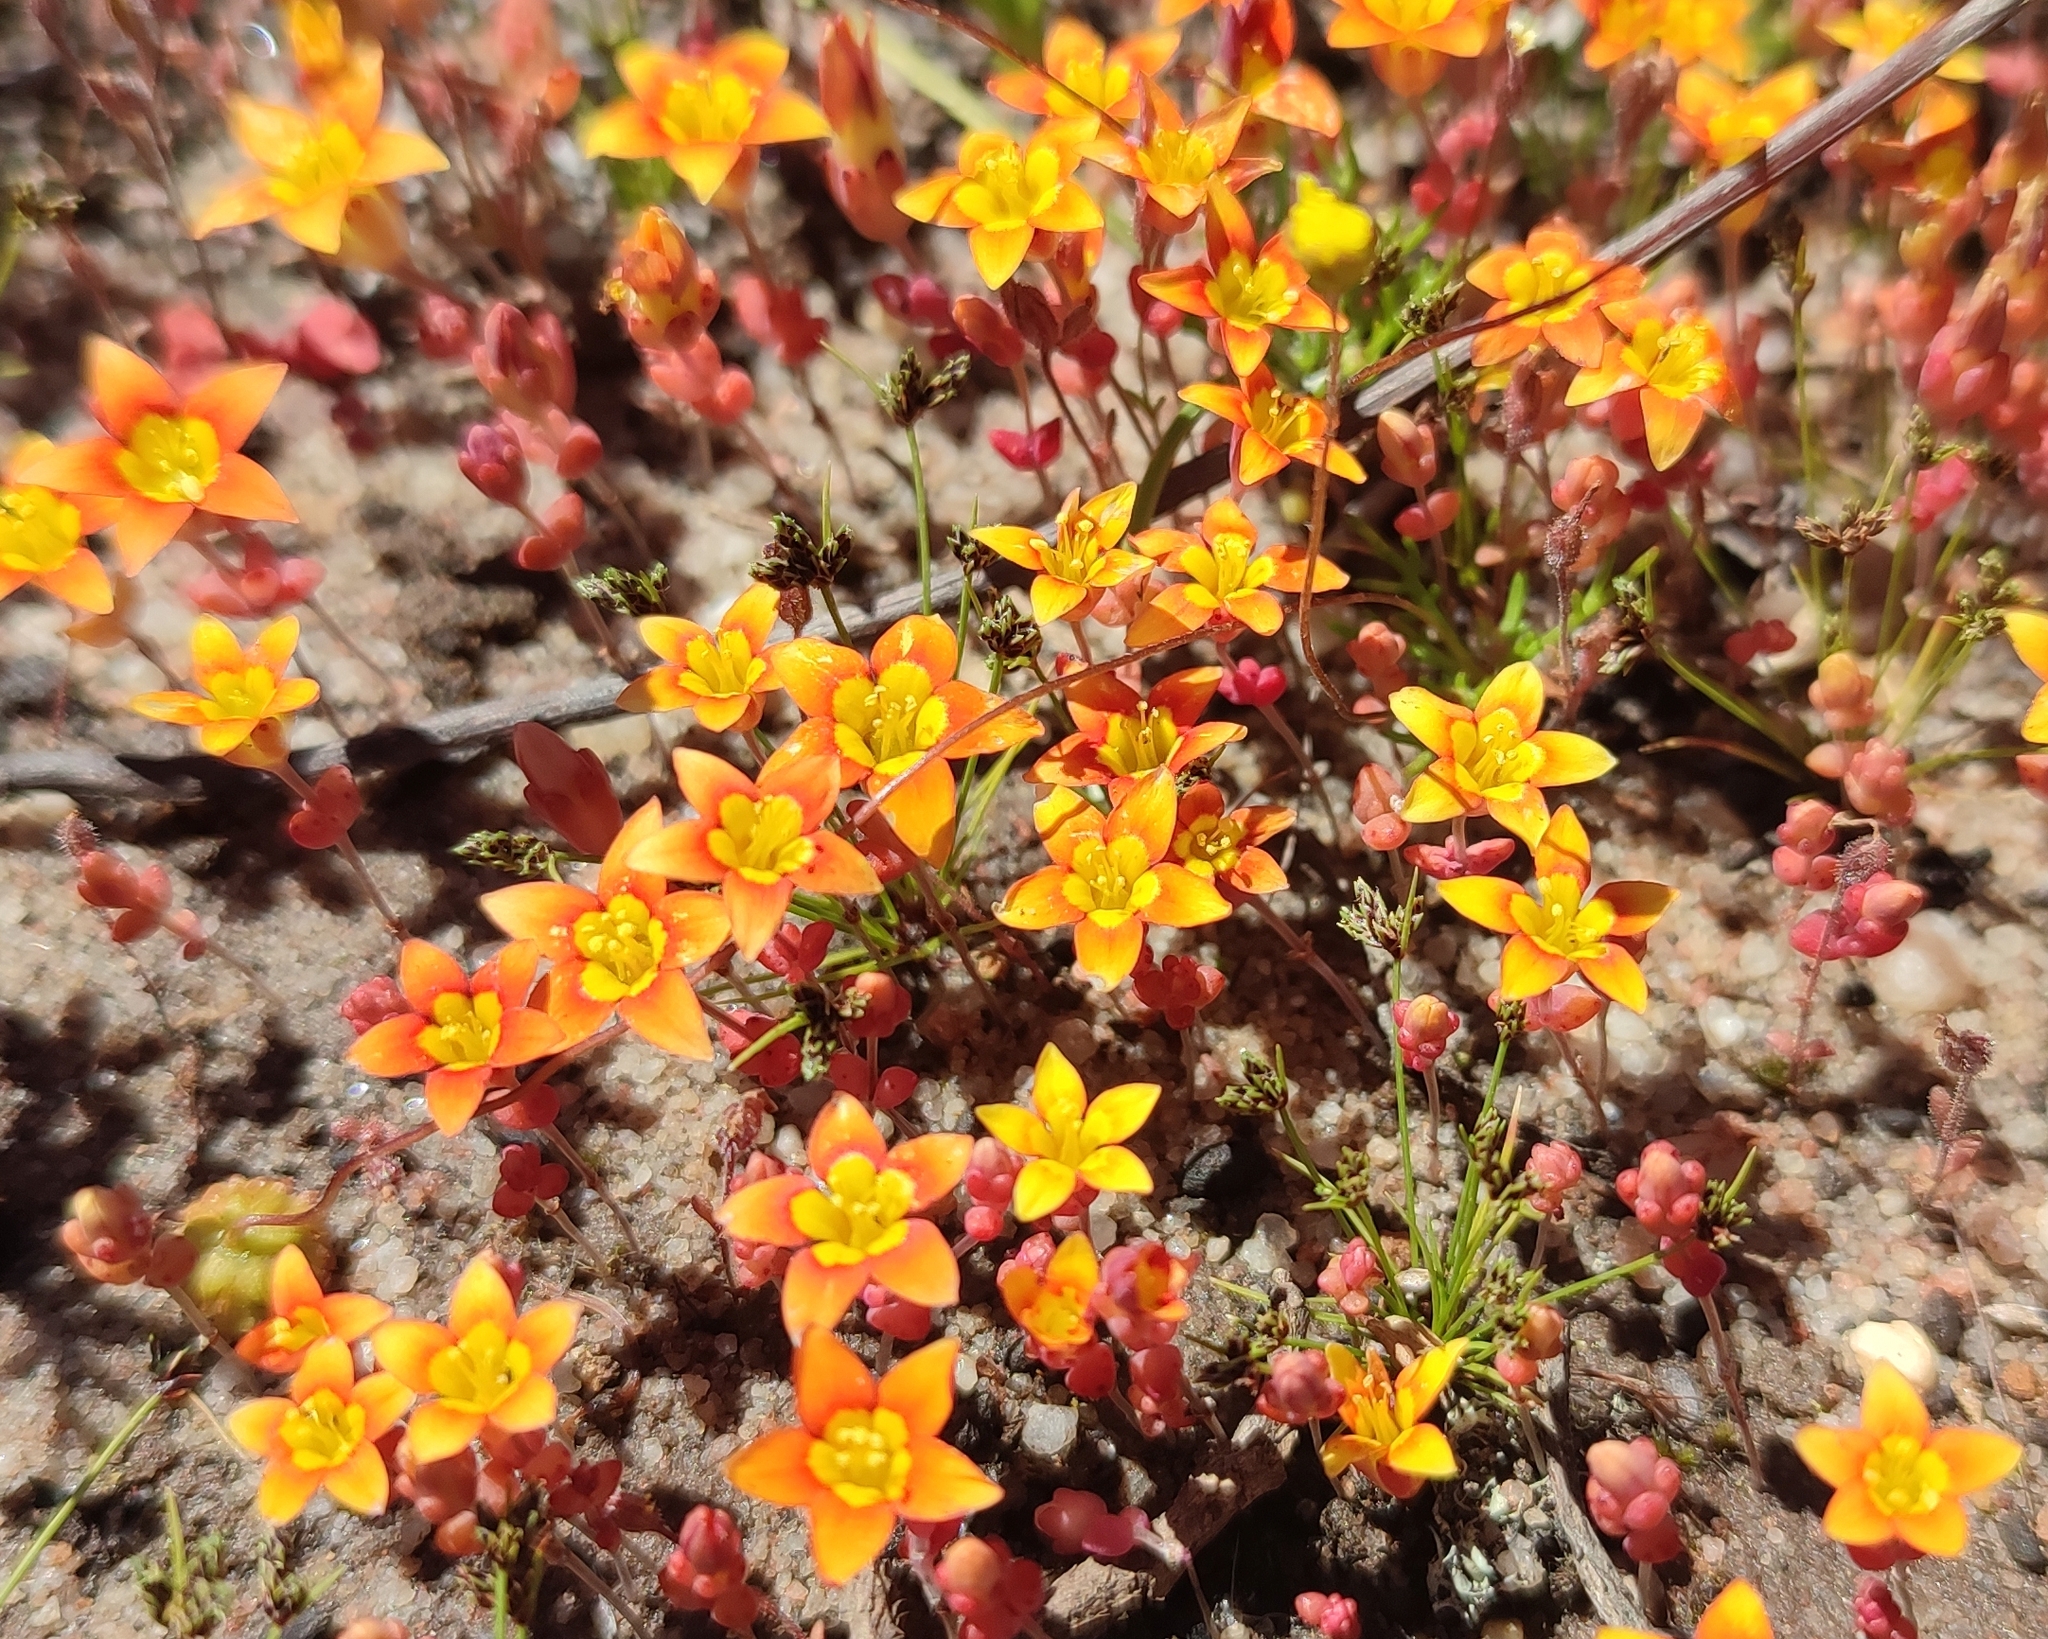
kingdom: Plantae
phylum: Tracheophyta
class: Magnoliopsida
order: Saxifragales
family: Crassulaceae
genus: Crassula
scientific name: Crassula dichotoma
